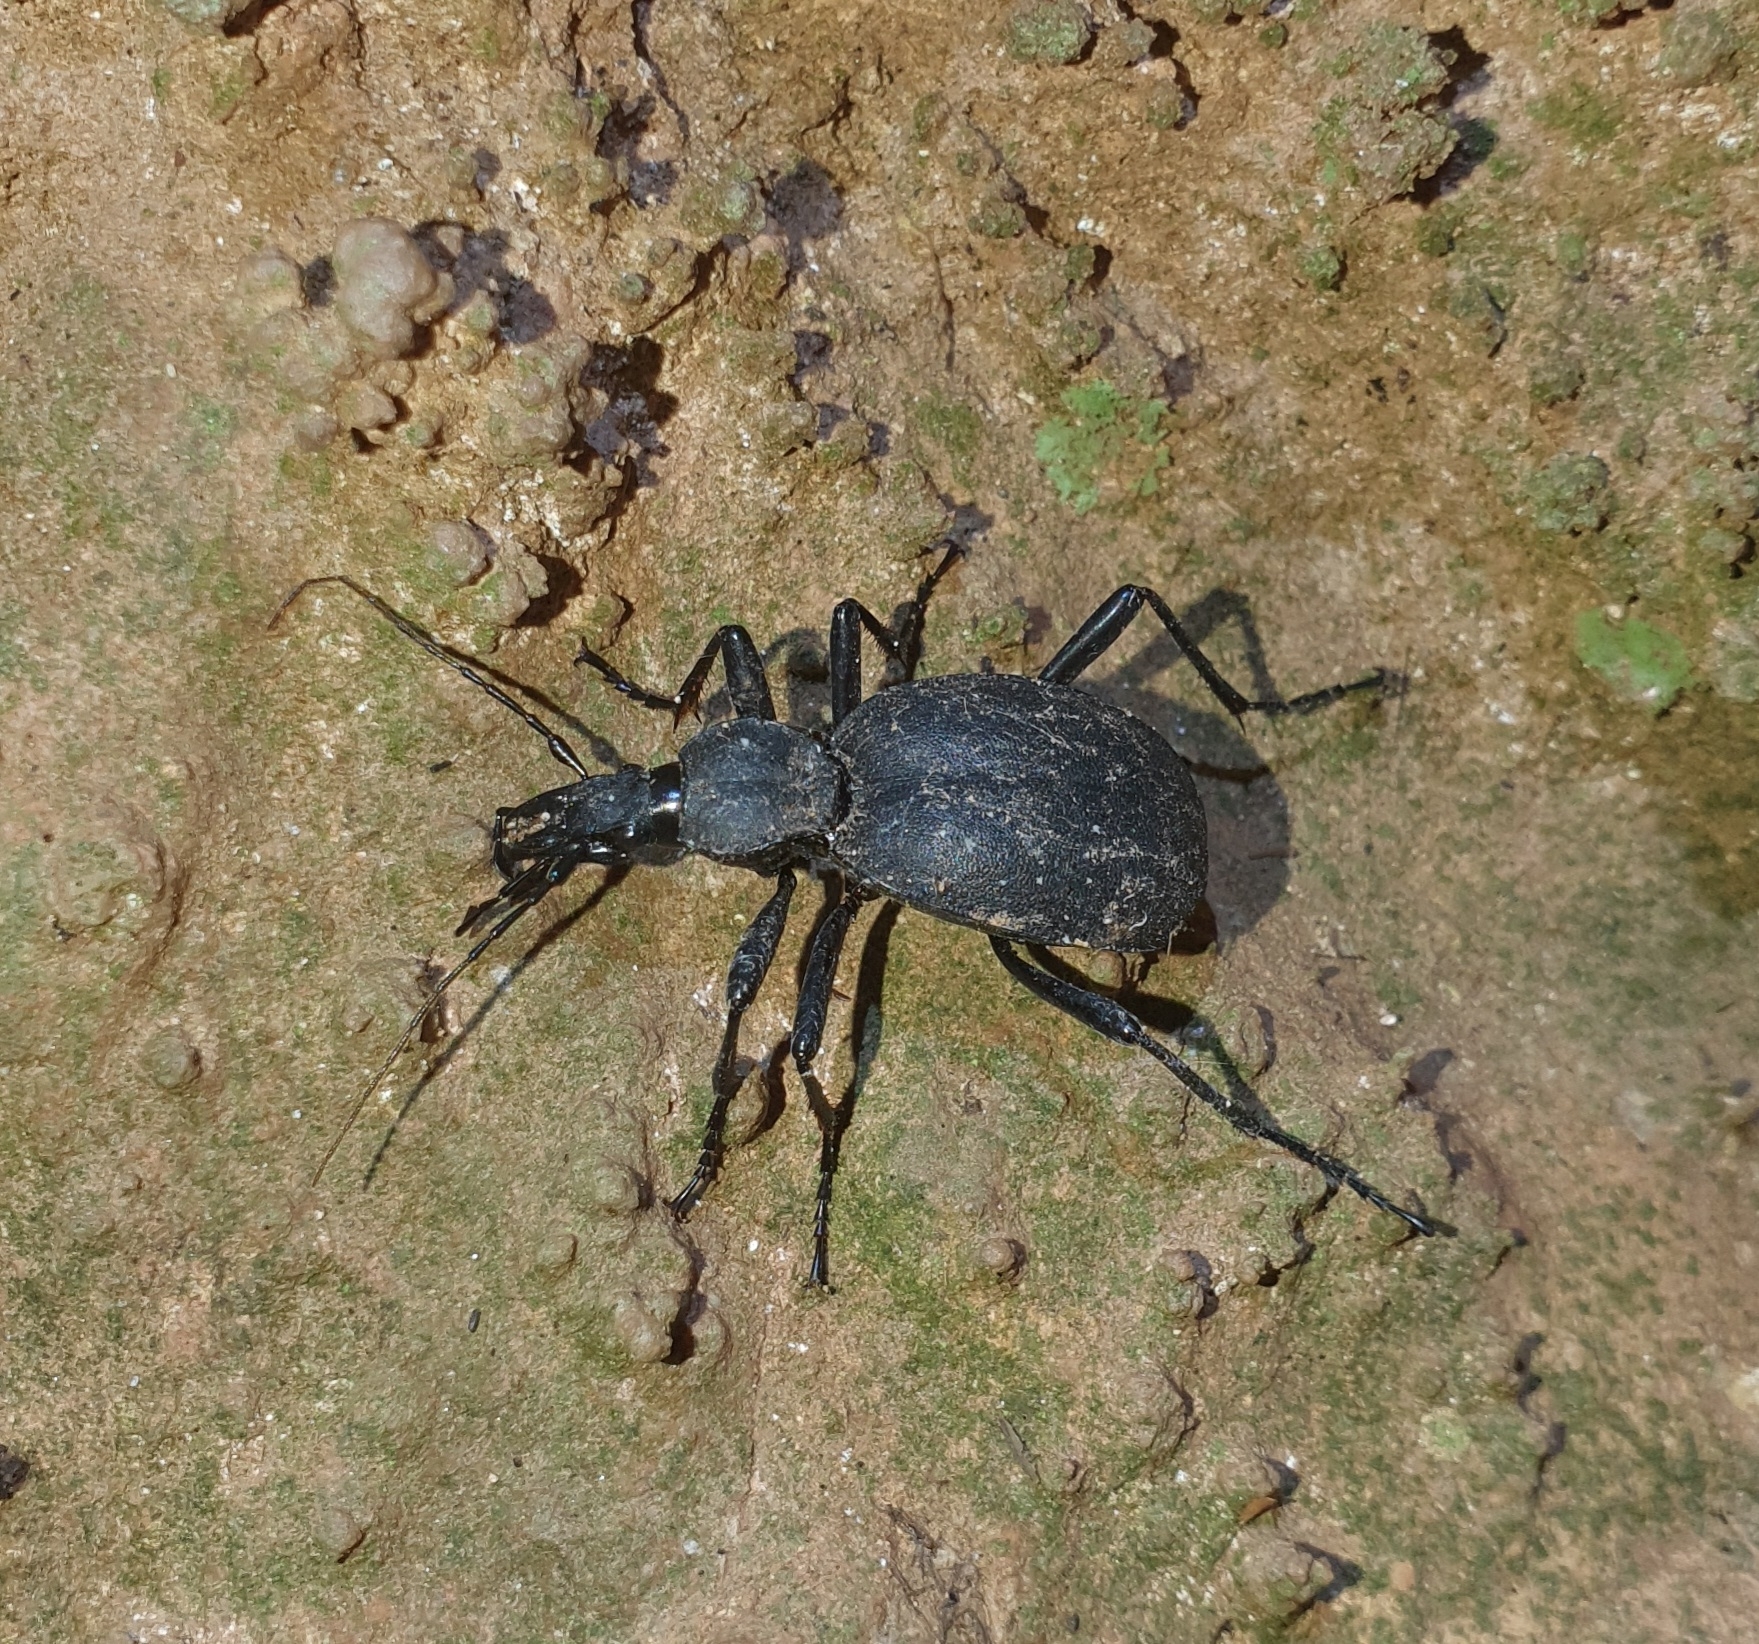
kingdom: Animalia
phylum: Arthropoda
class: Insecta
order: Coleoptera
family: Carabidae
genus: Cychrus
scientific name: Cychrus italicus
